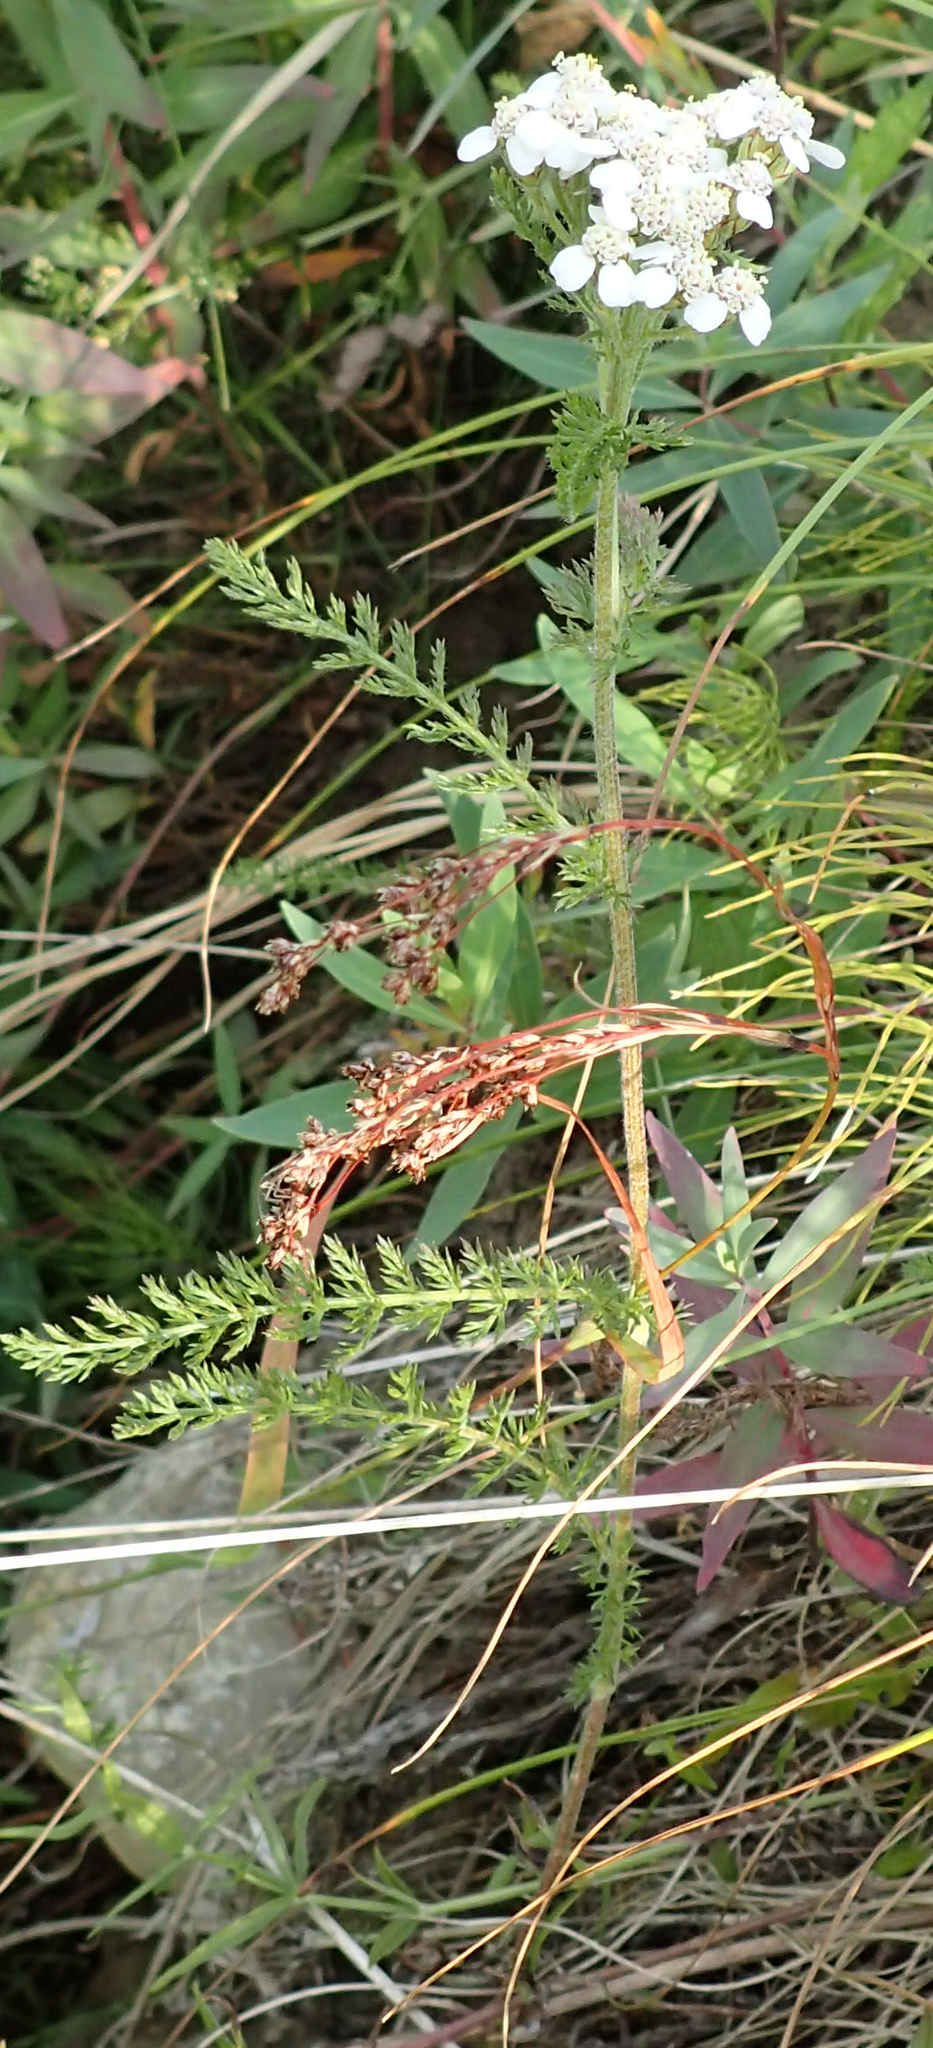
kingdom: Plantae
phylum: Tracheophyta
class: Magnoliopsida
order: Asterales
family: Asteraceae
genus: Achillea
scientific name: Achillea millefolium
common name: Yarrow
